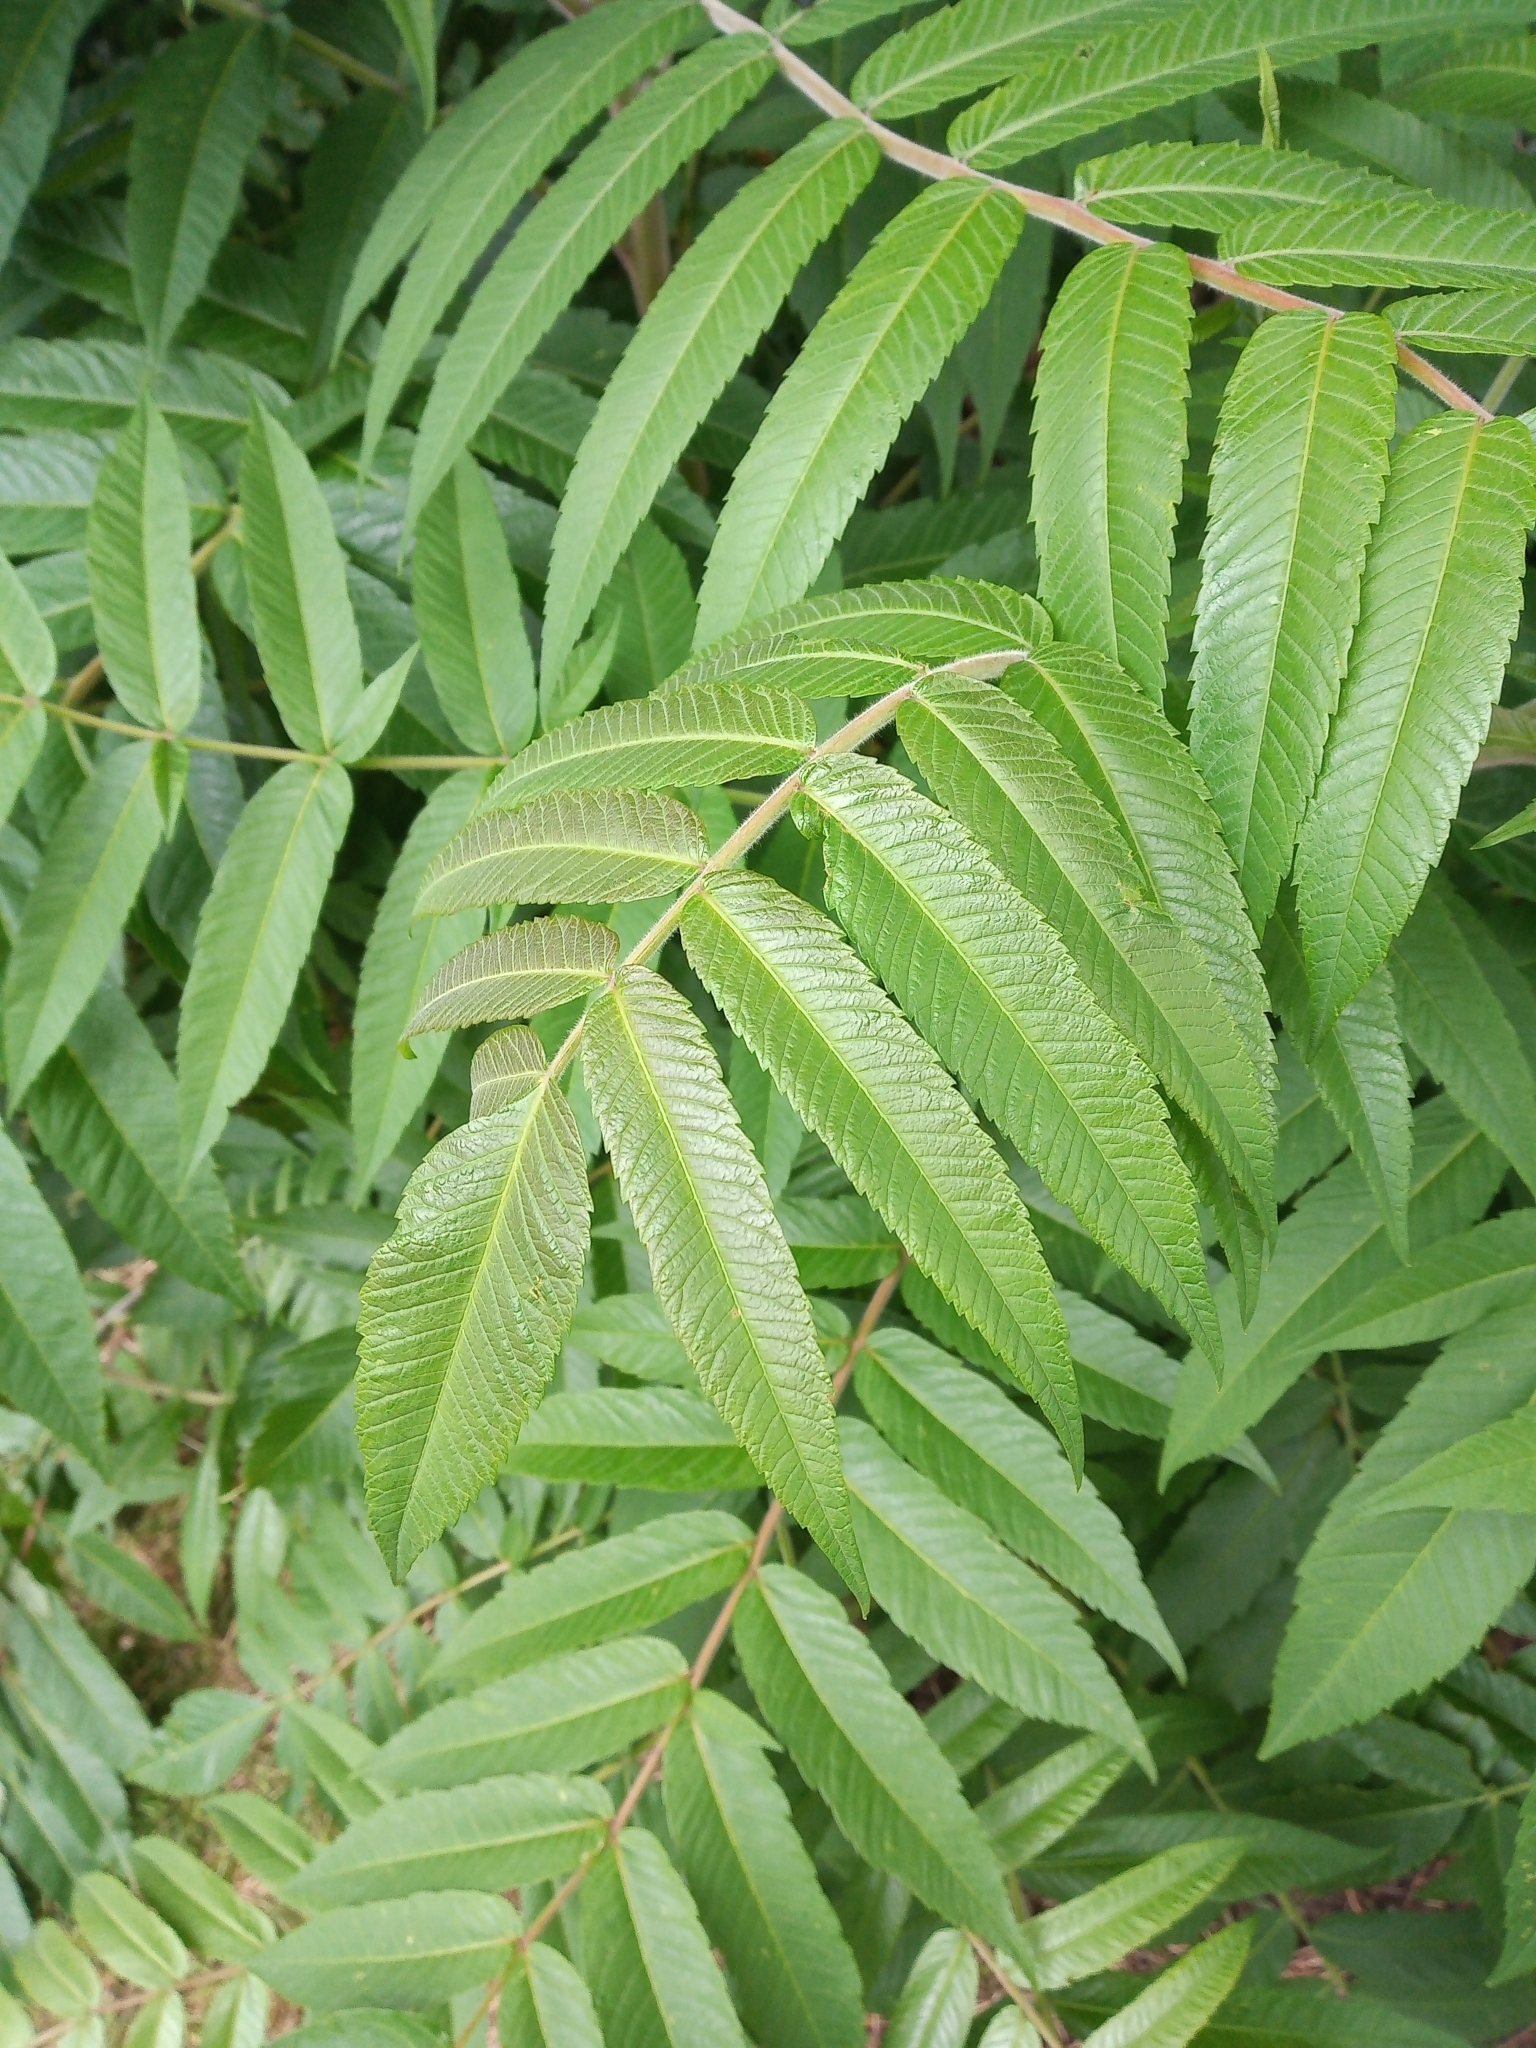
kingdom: Plantae
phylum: Tracheophyta
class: Magnoliopsida
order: Sapindales
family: Anacardiaceae
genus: Rhus
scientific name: Rhus typhina
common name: Staghorn sumac
